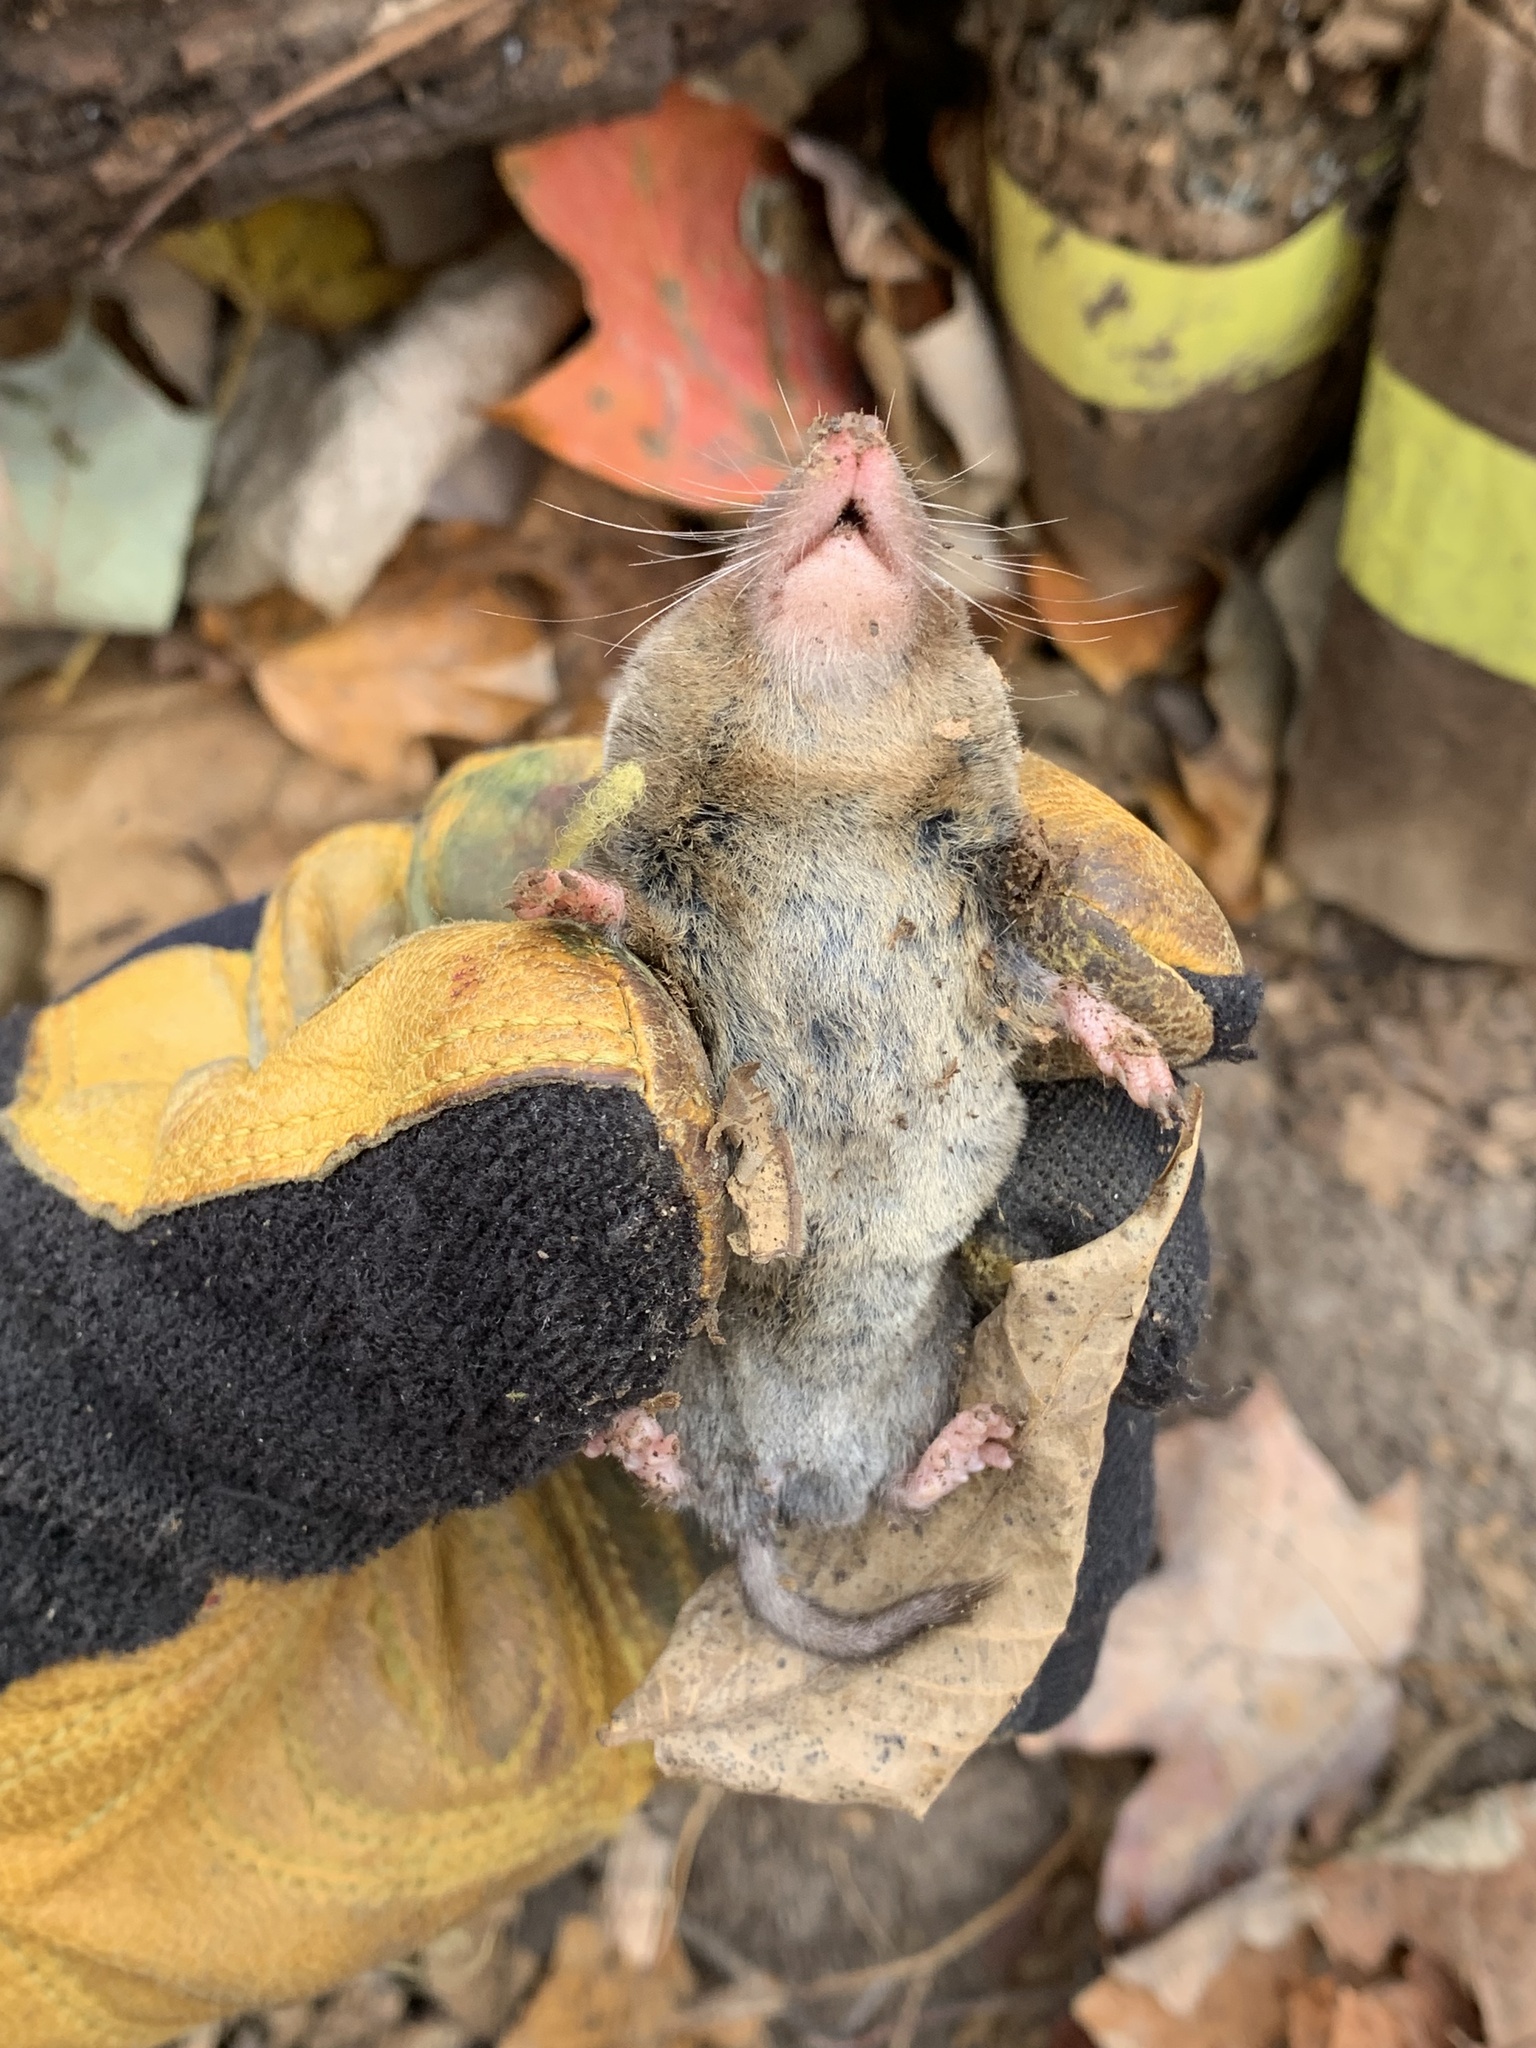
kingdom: Animalia
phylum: Chordata
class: Mammalia
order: Soricomorpha
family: Soricidae
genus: Blarina
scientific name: Blarina brevicauda
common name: Northern short-tailed shrew
